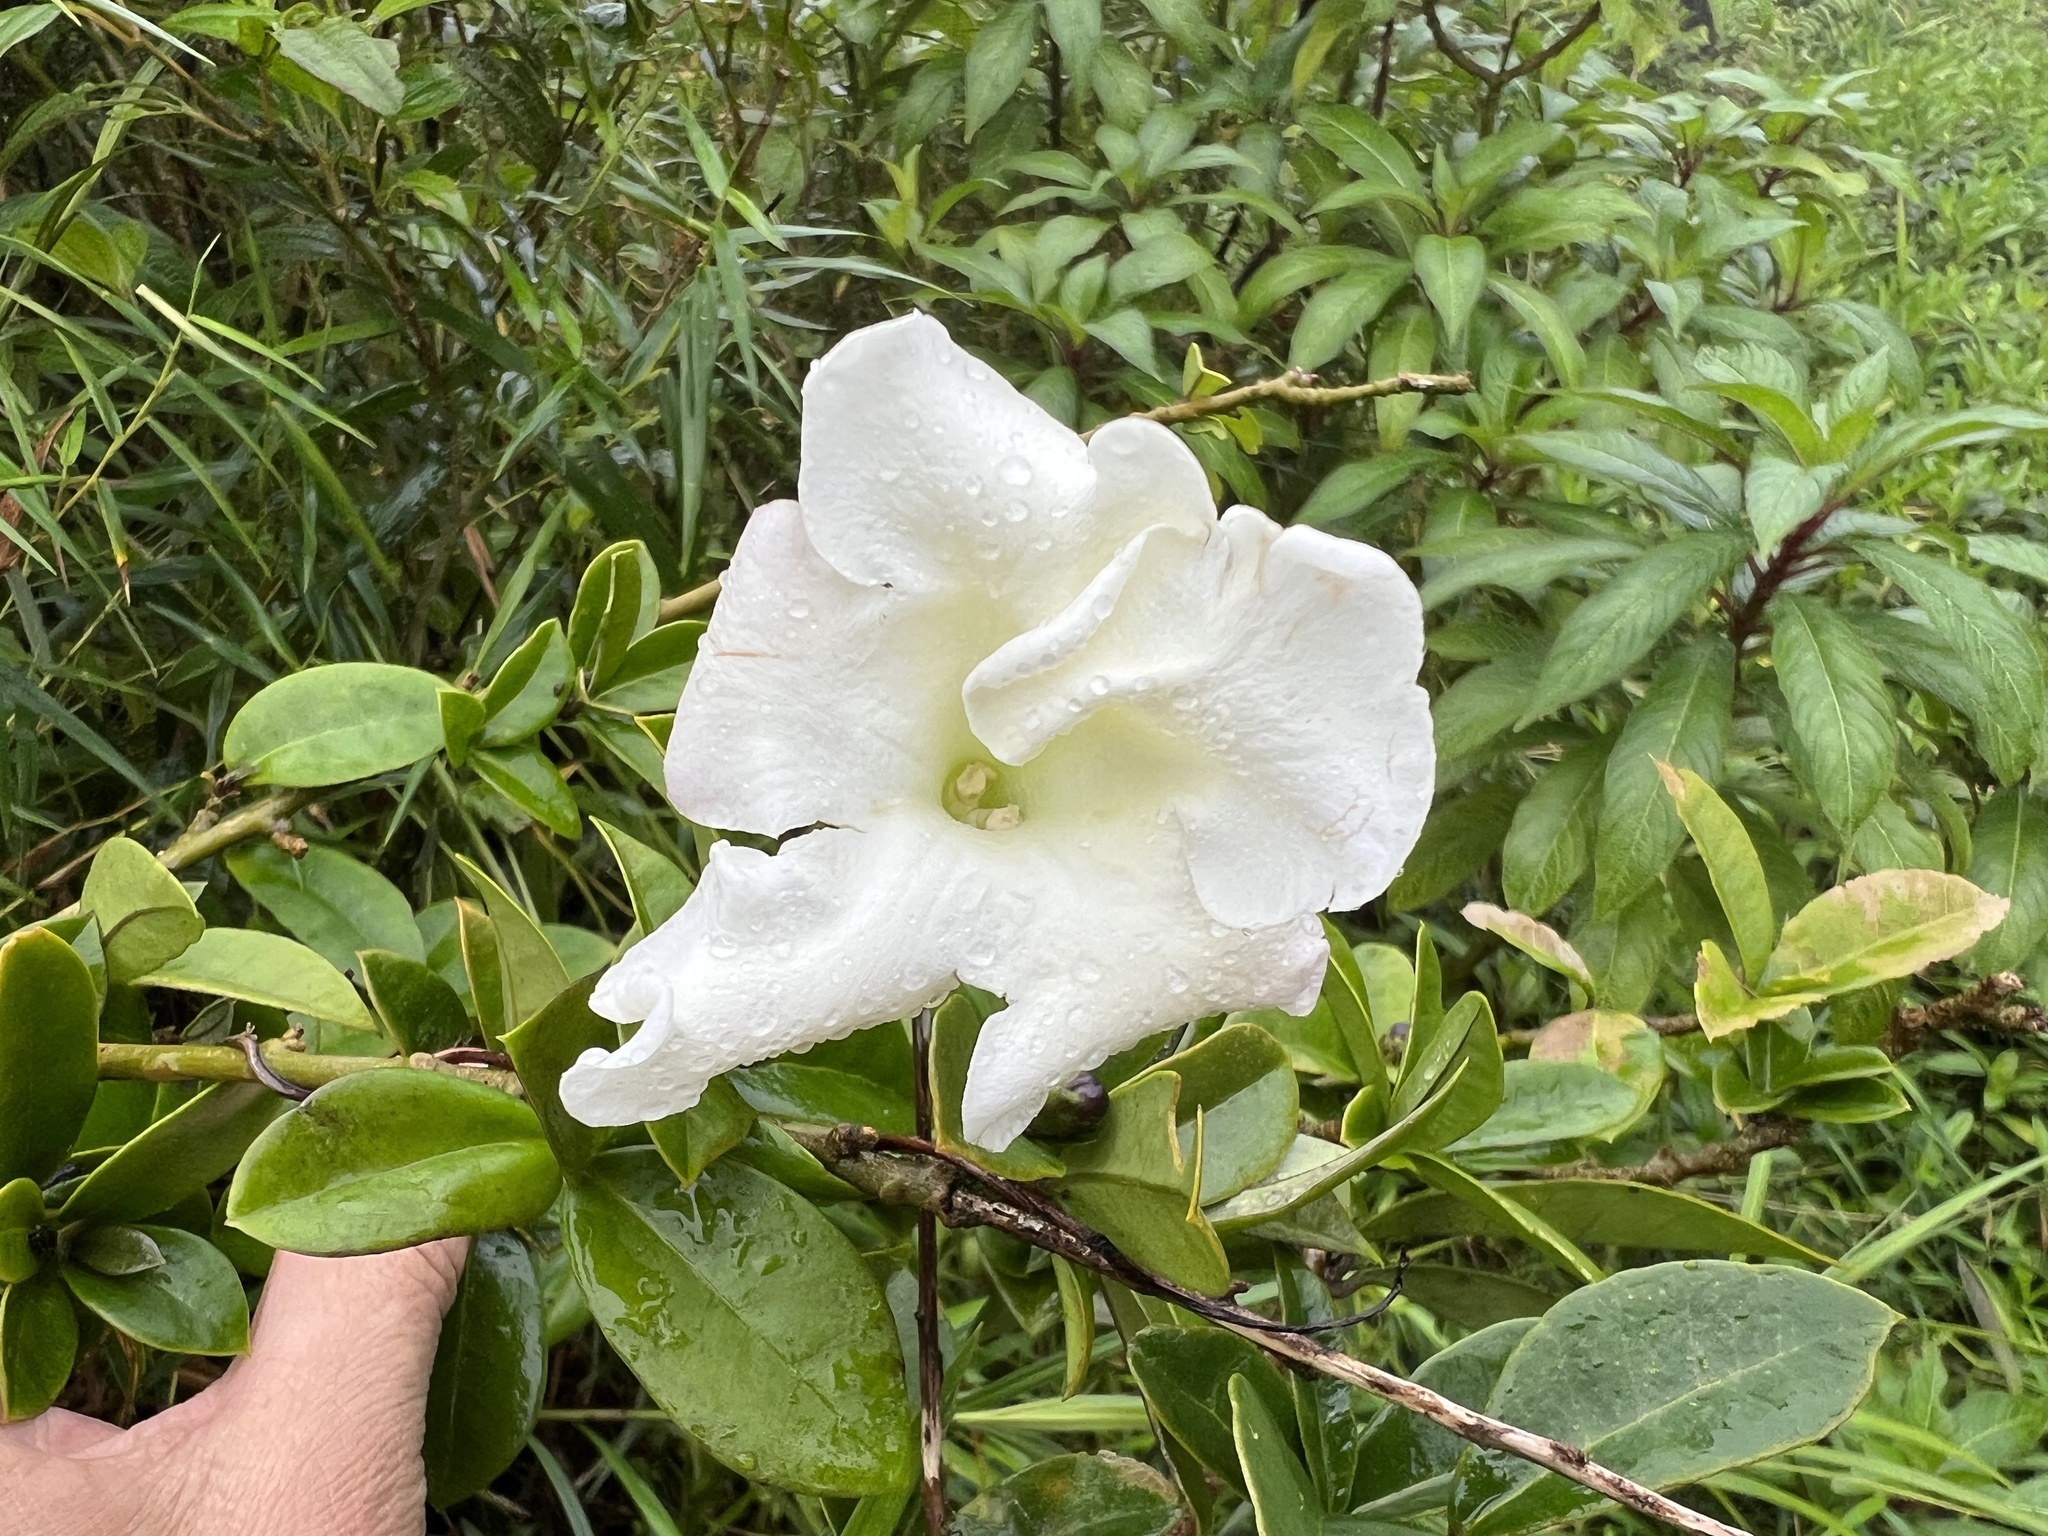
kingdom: Plantae
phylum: Tracheophyta
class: Magnoliopsida
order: Solanales
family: Solanaceae
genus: Brunfelsia
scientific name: Brunfelsia lactea
